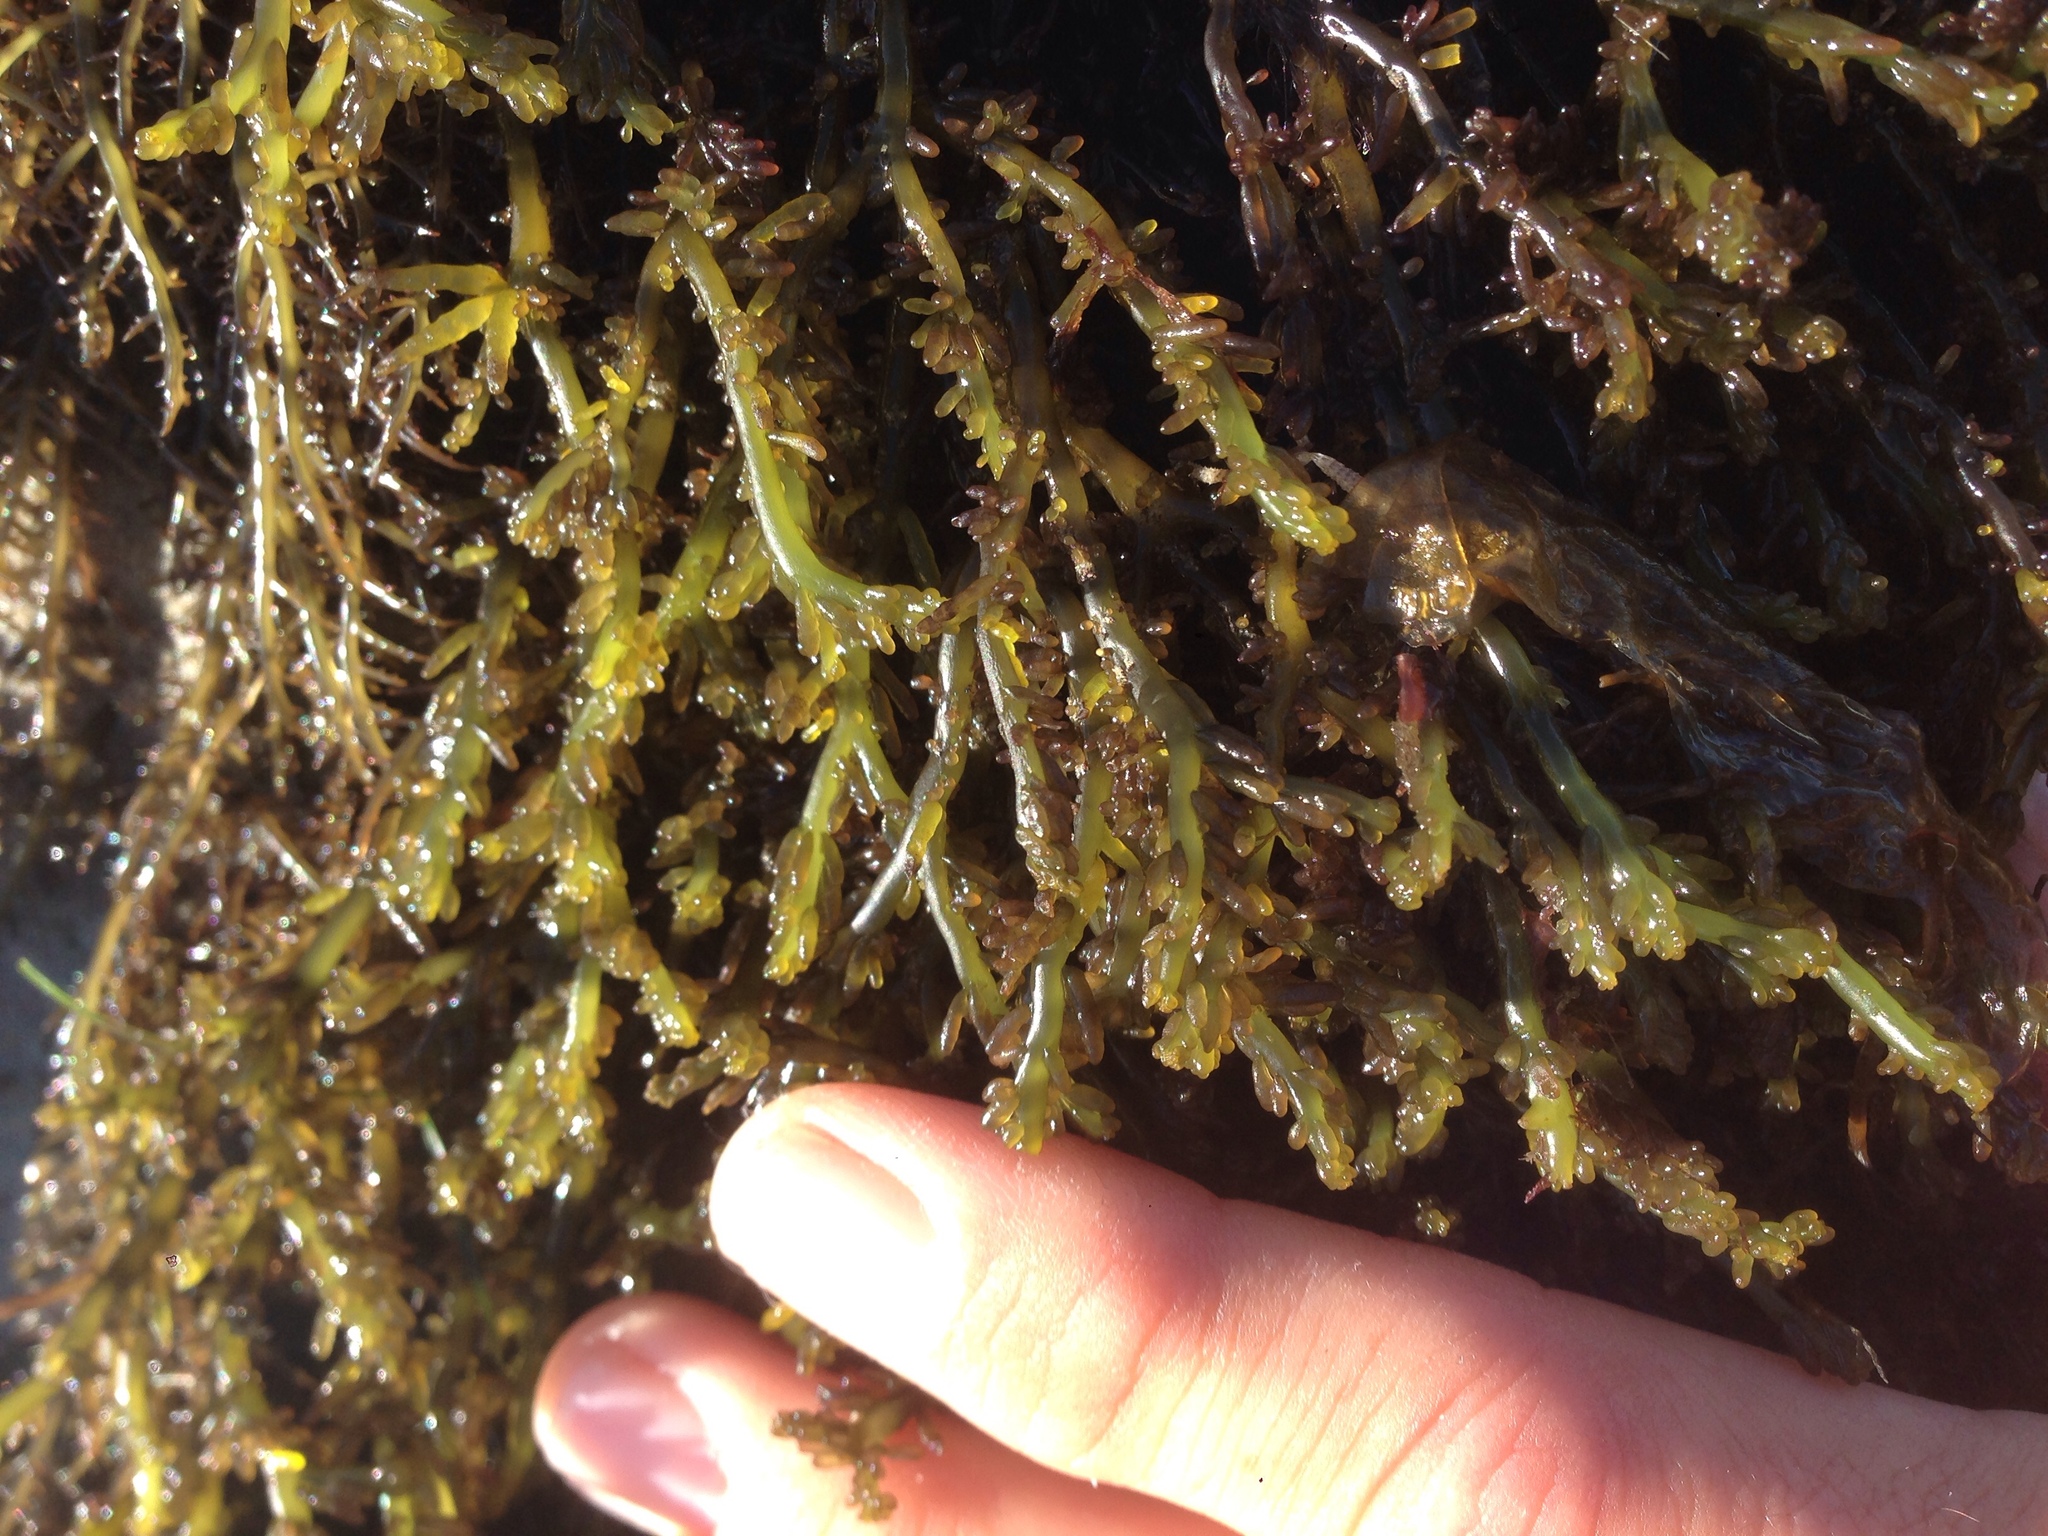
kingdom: Plantae
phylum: Rhodophyta
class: Florideophyceae
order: Rhodymeniales
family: Champiaceae
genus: Neogastroclonium
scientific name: Neogastroclonium subarticulatum
